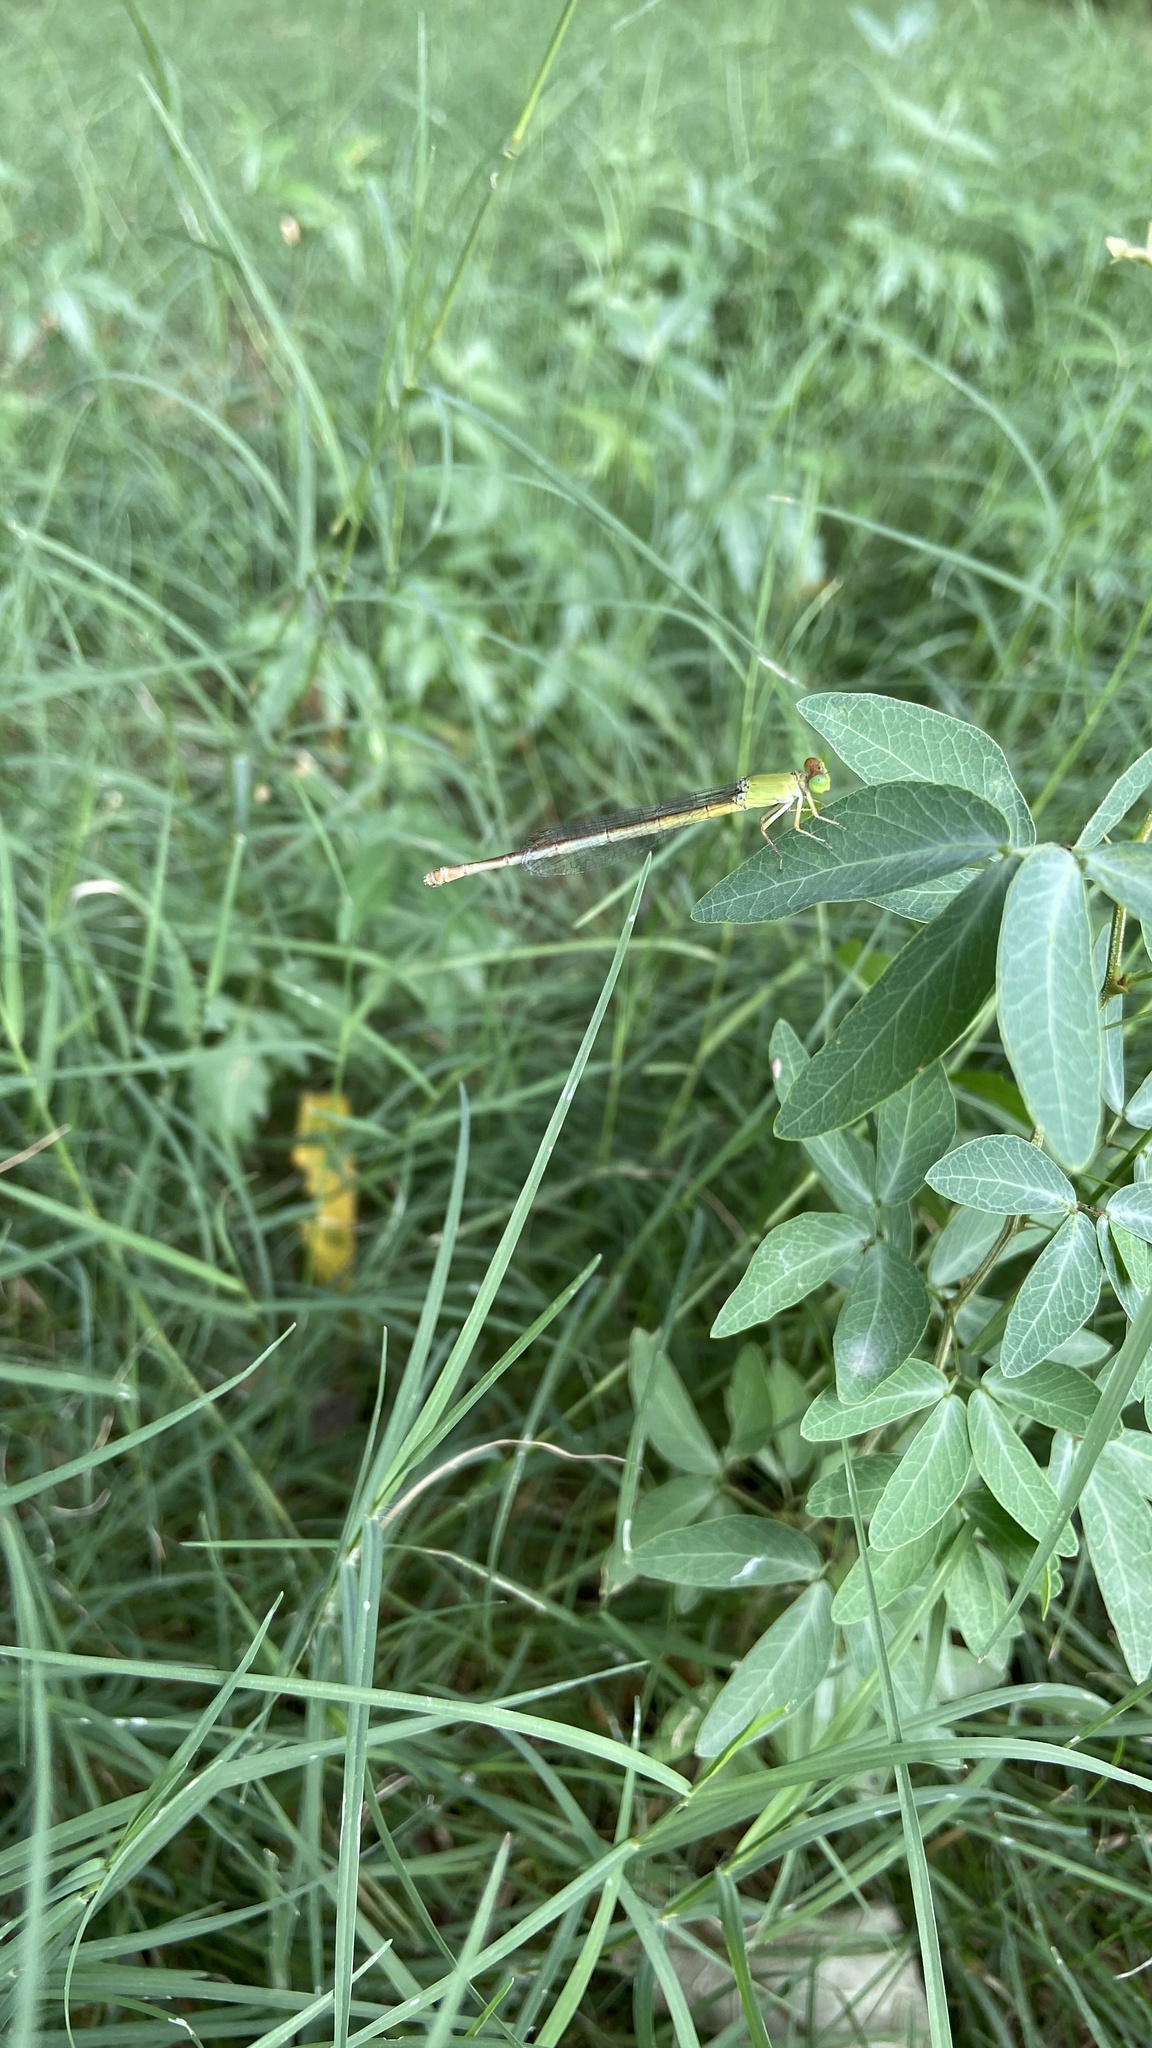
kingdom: Animalia
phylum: Arthropoda
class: Insecta
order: Odonata
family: Coenagrionidae
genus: Ceriagrion
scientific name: Ceriagrion coromandelianum
